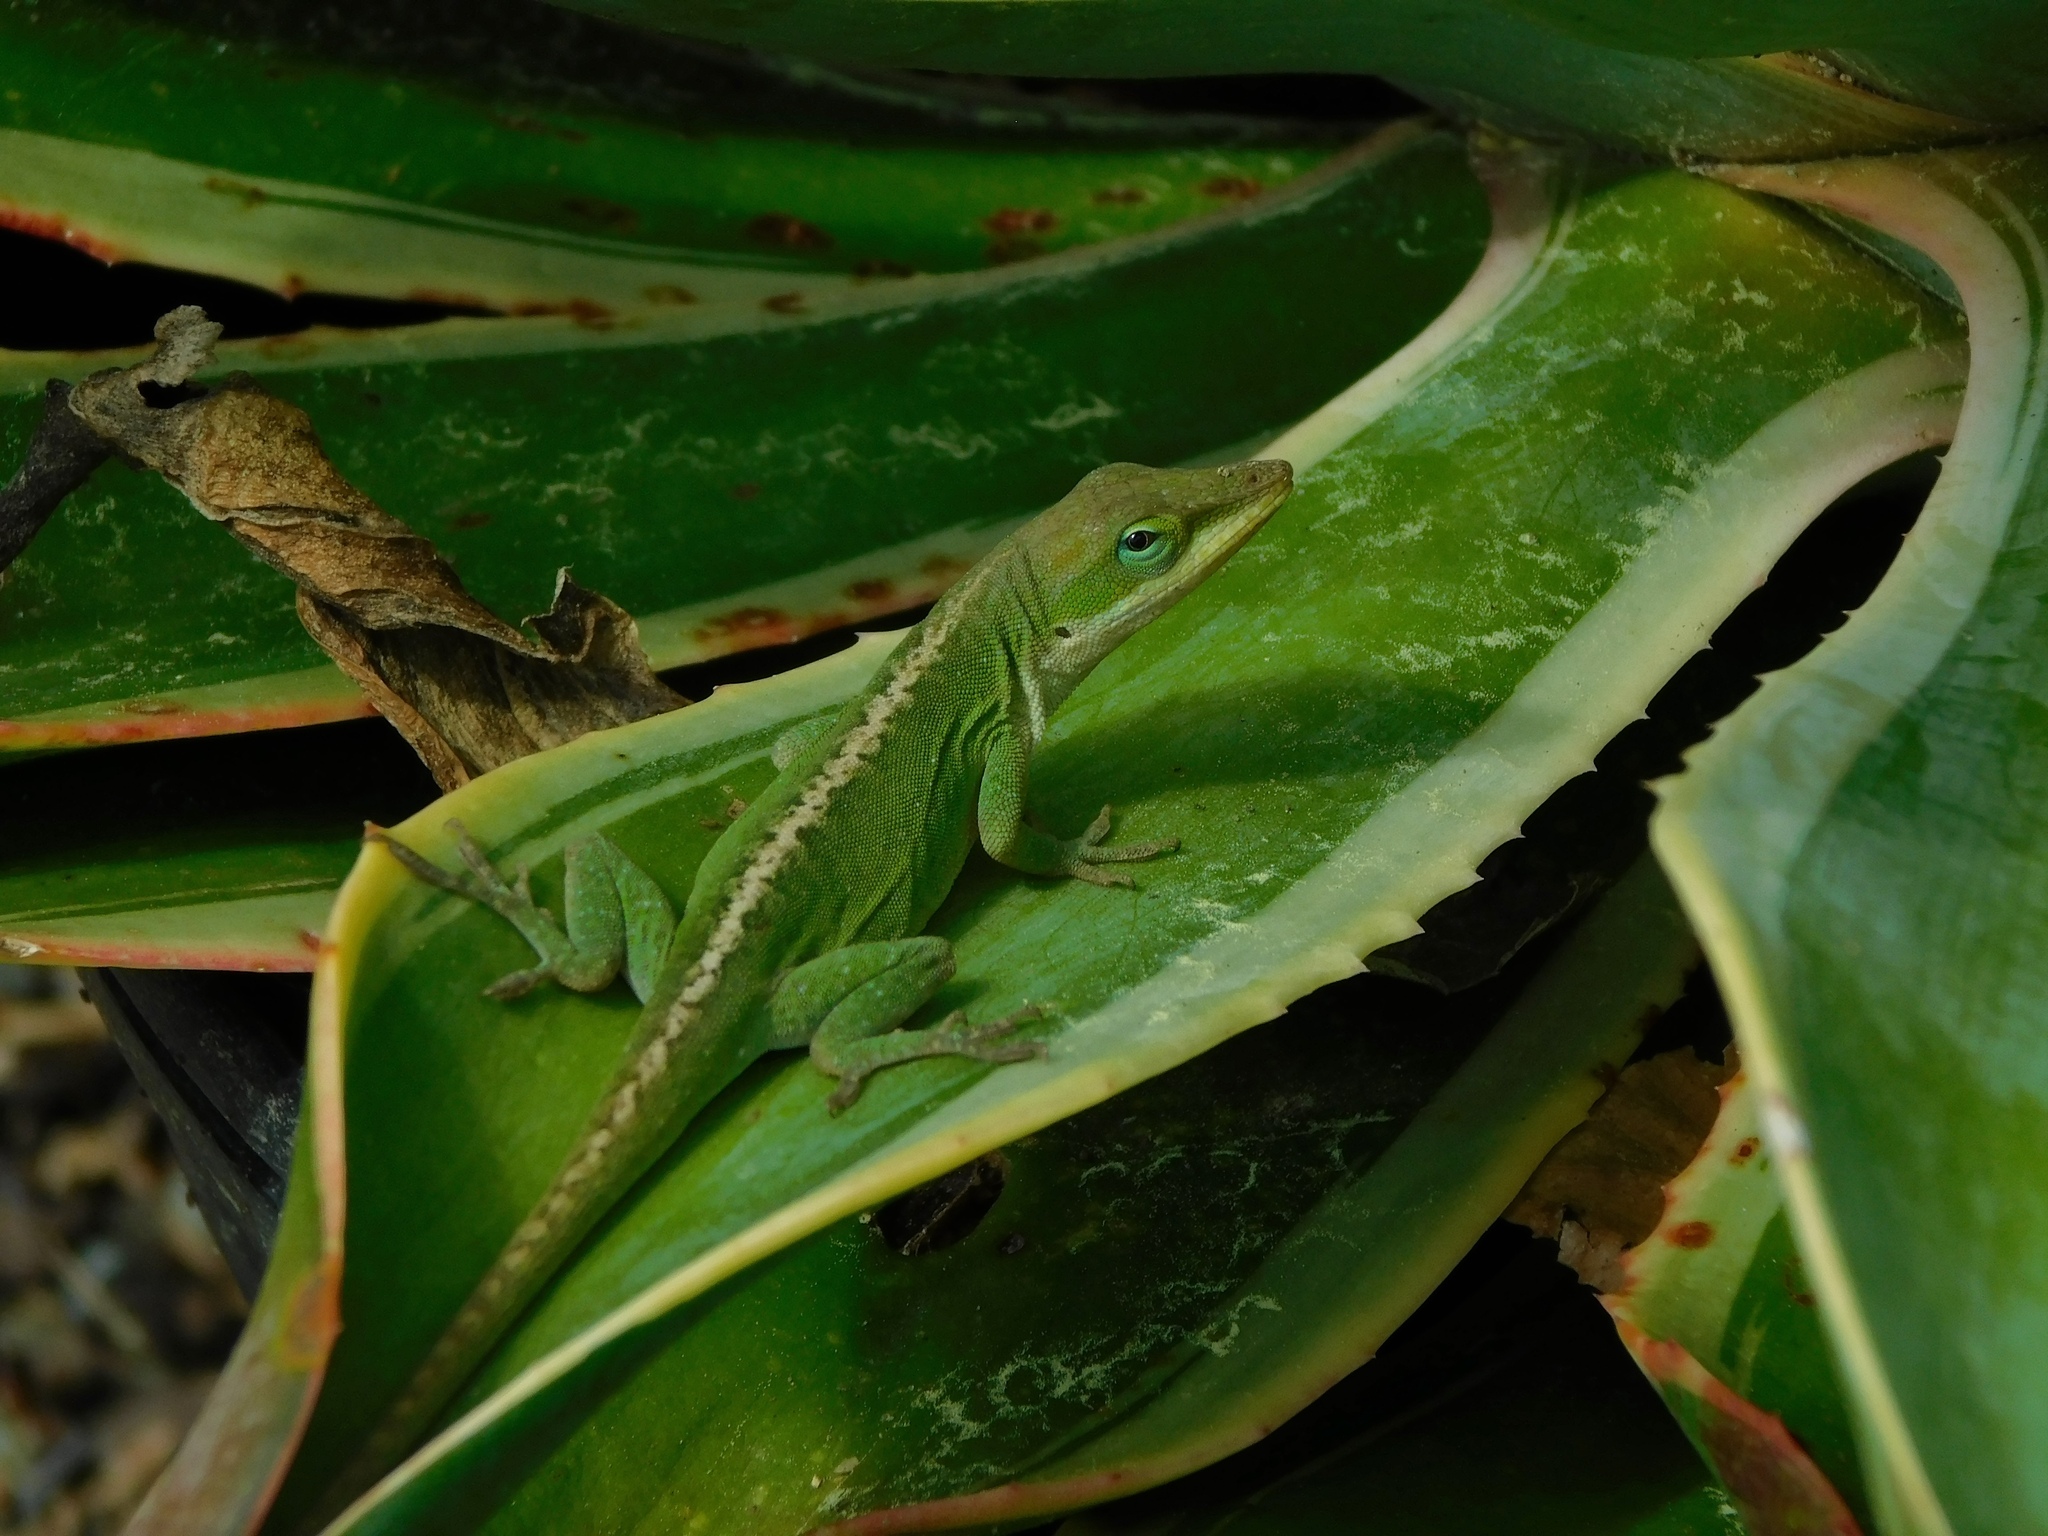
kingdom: Animalia
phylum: Chordata
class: Squamata
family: Dactyloidae
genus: Anolis
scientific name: Anolis carolinensis
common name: Green anole
